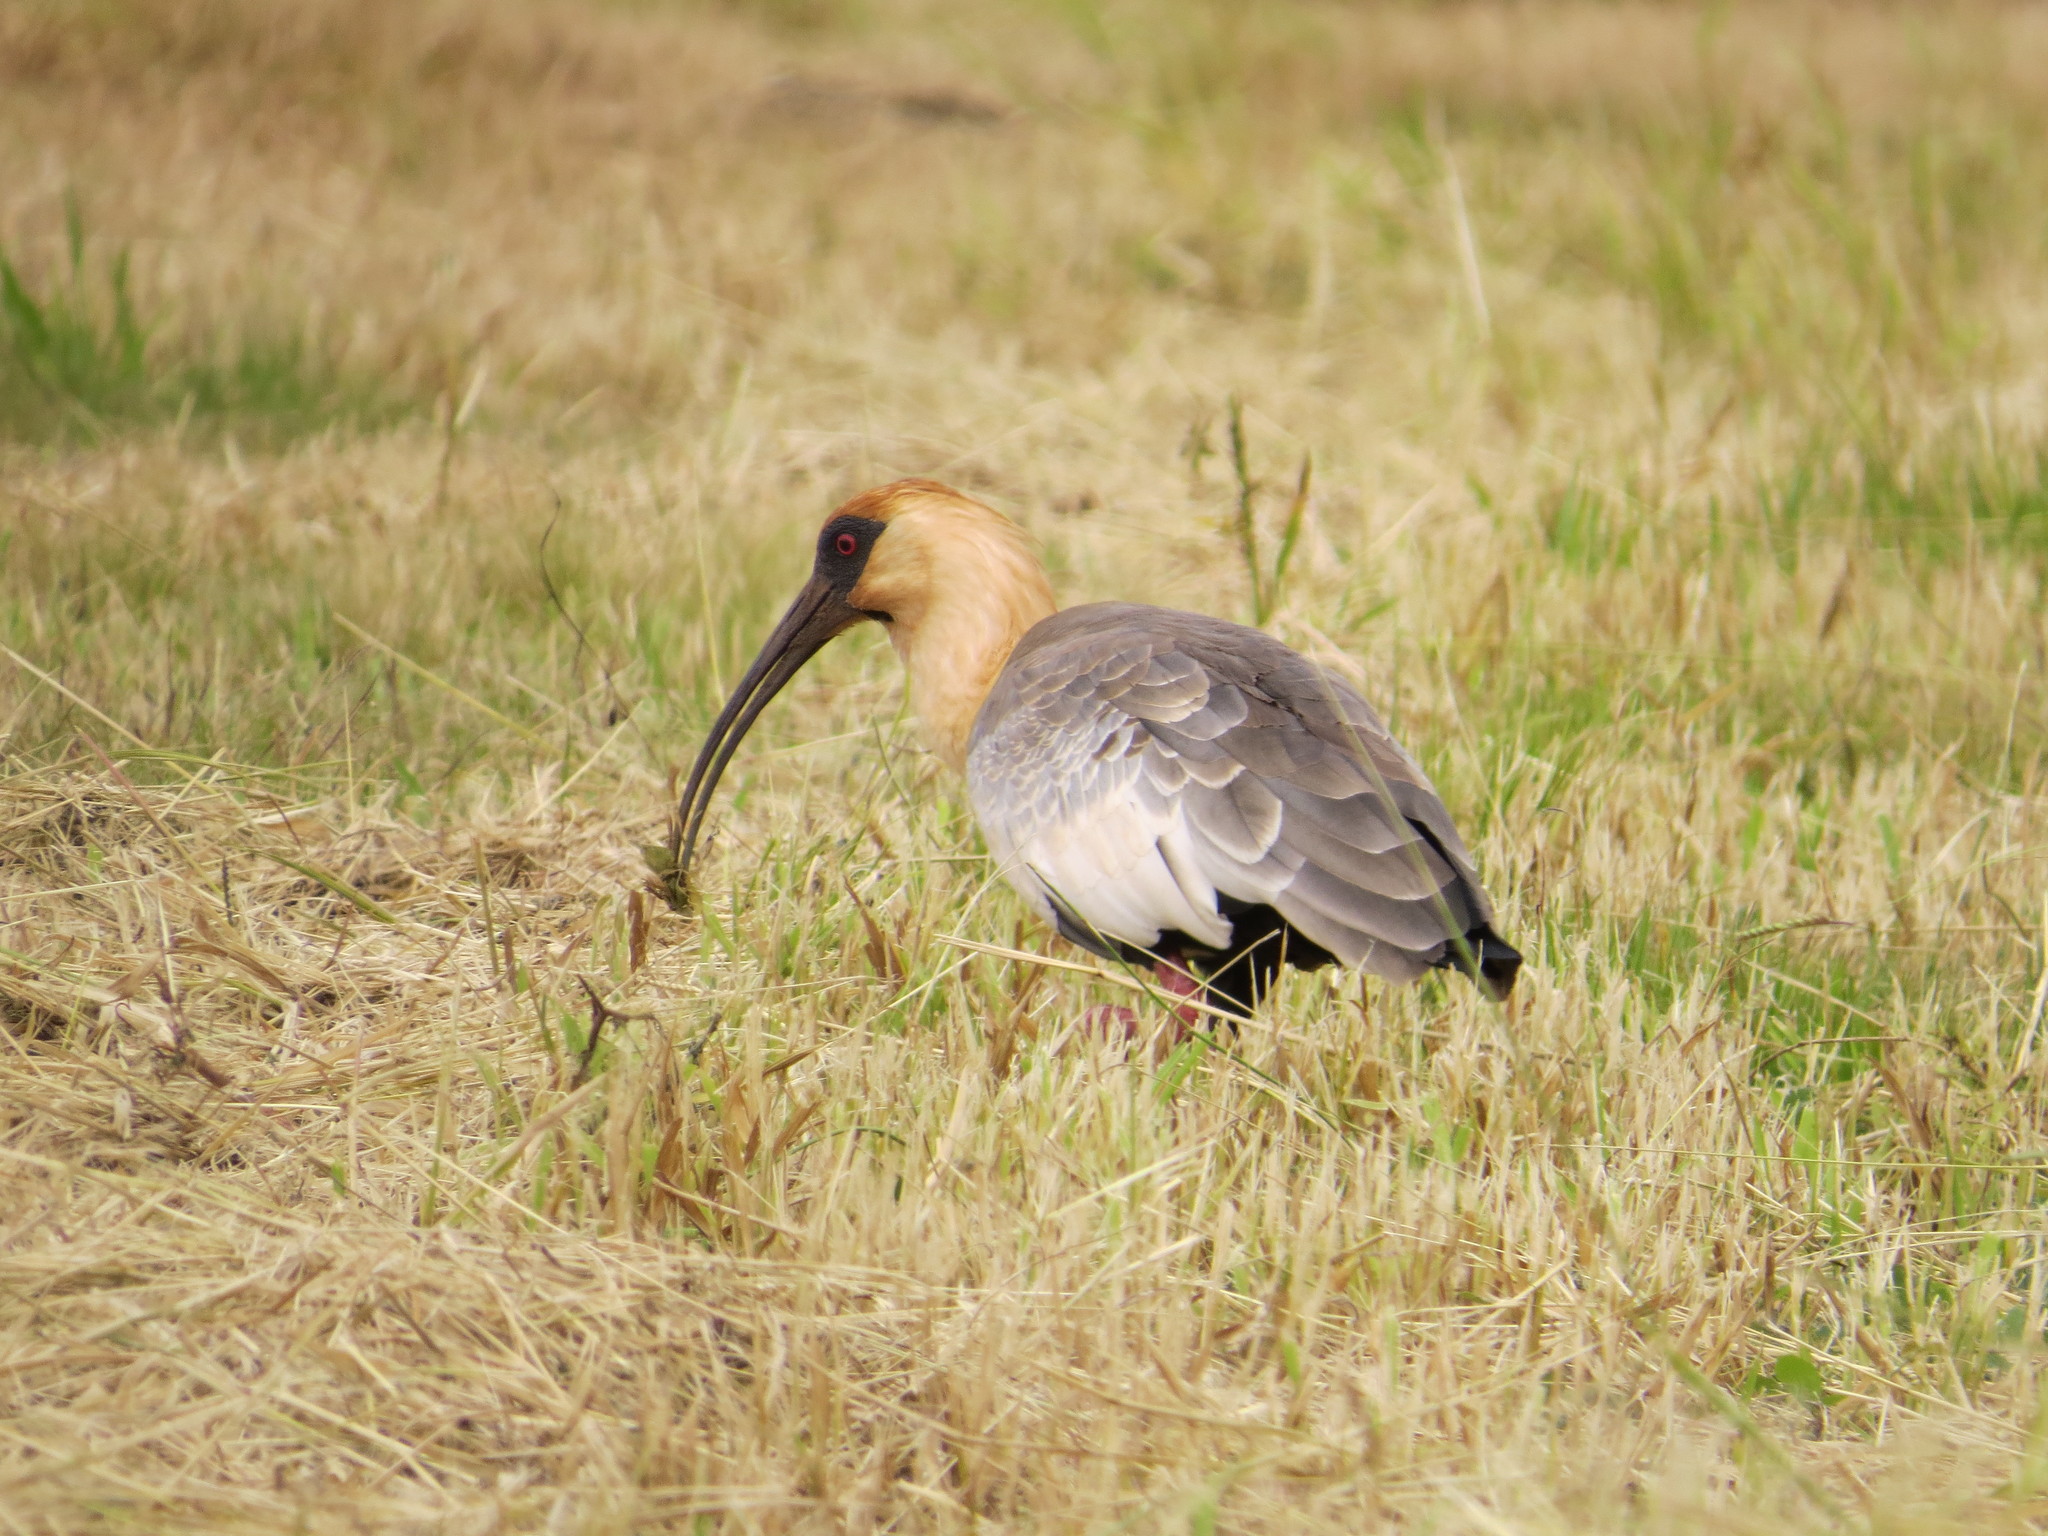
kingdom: Animalia
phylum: Chordata
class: Aves
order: Pelecaniformes
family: Threskiornithidae
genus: Theristicus
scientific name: Theristicus caudatus
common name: Buff-necked ibis
